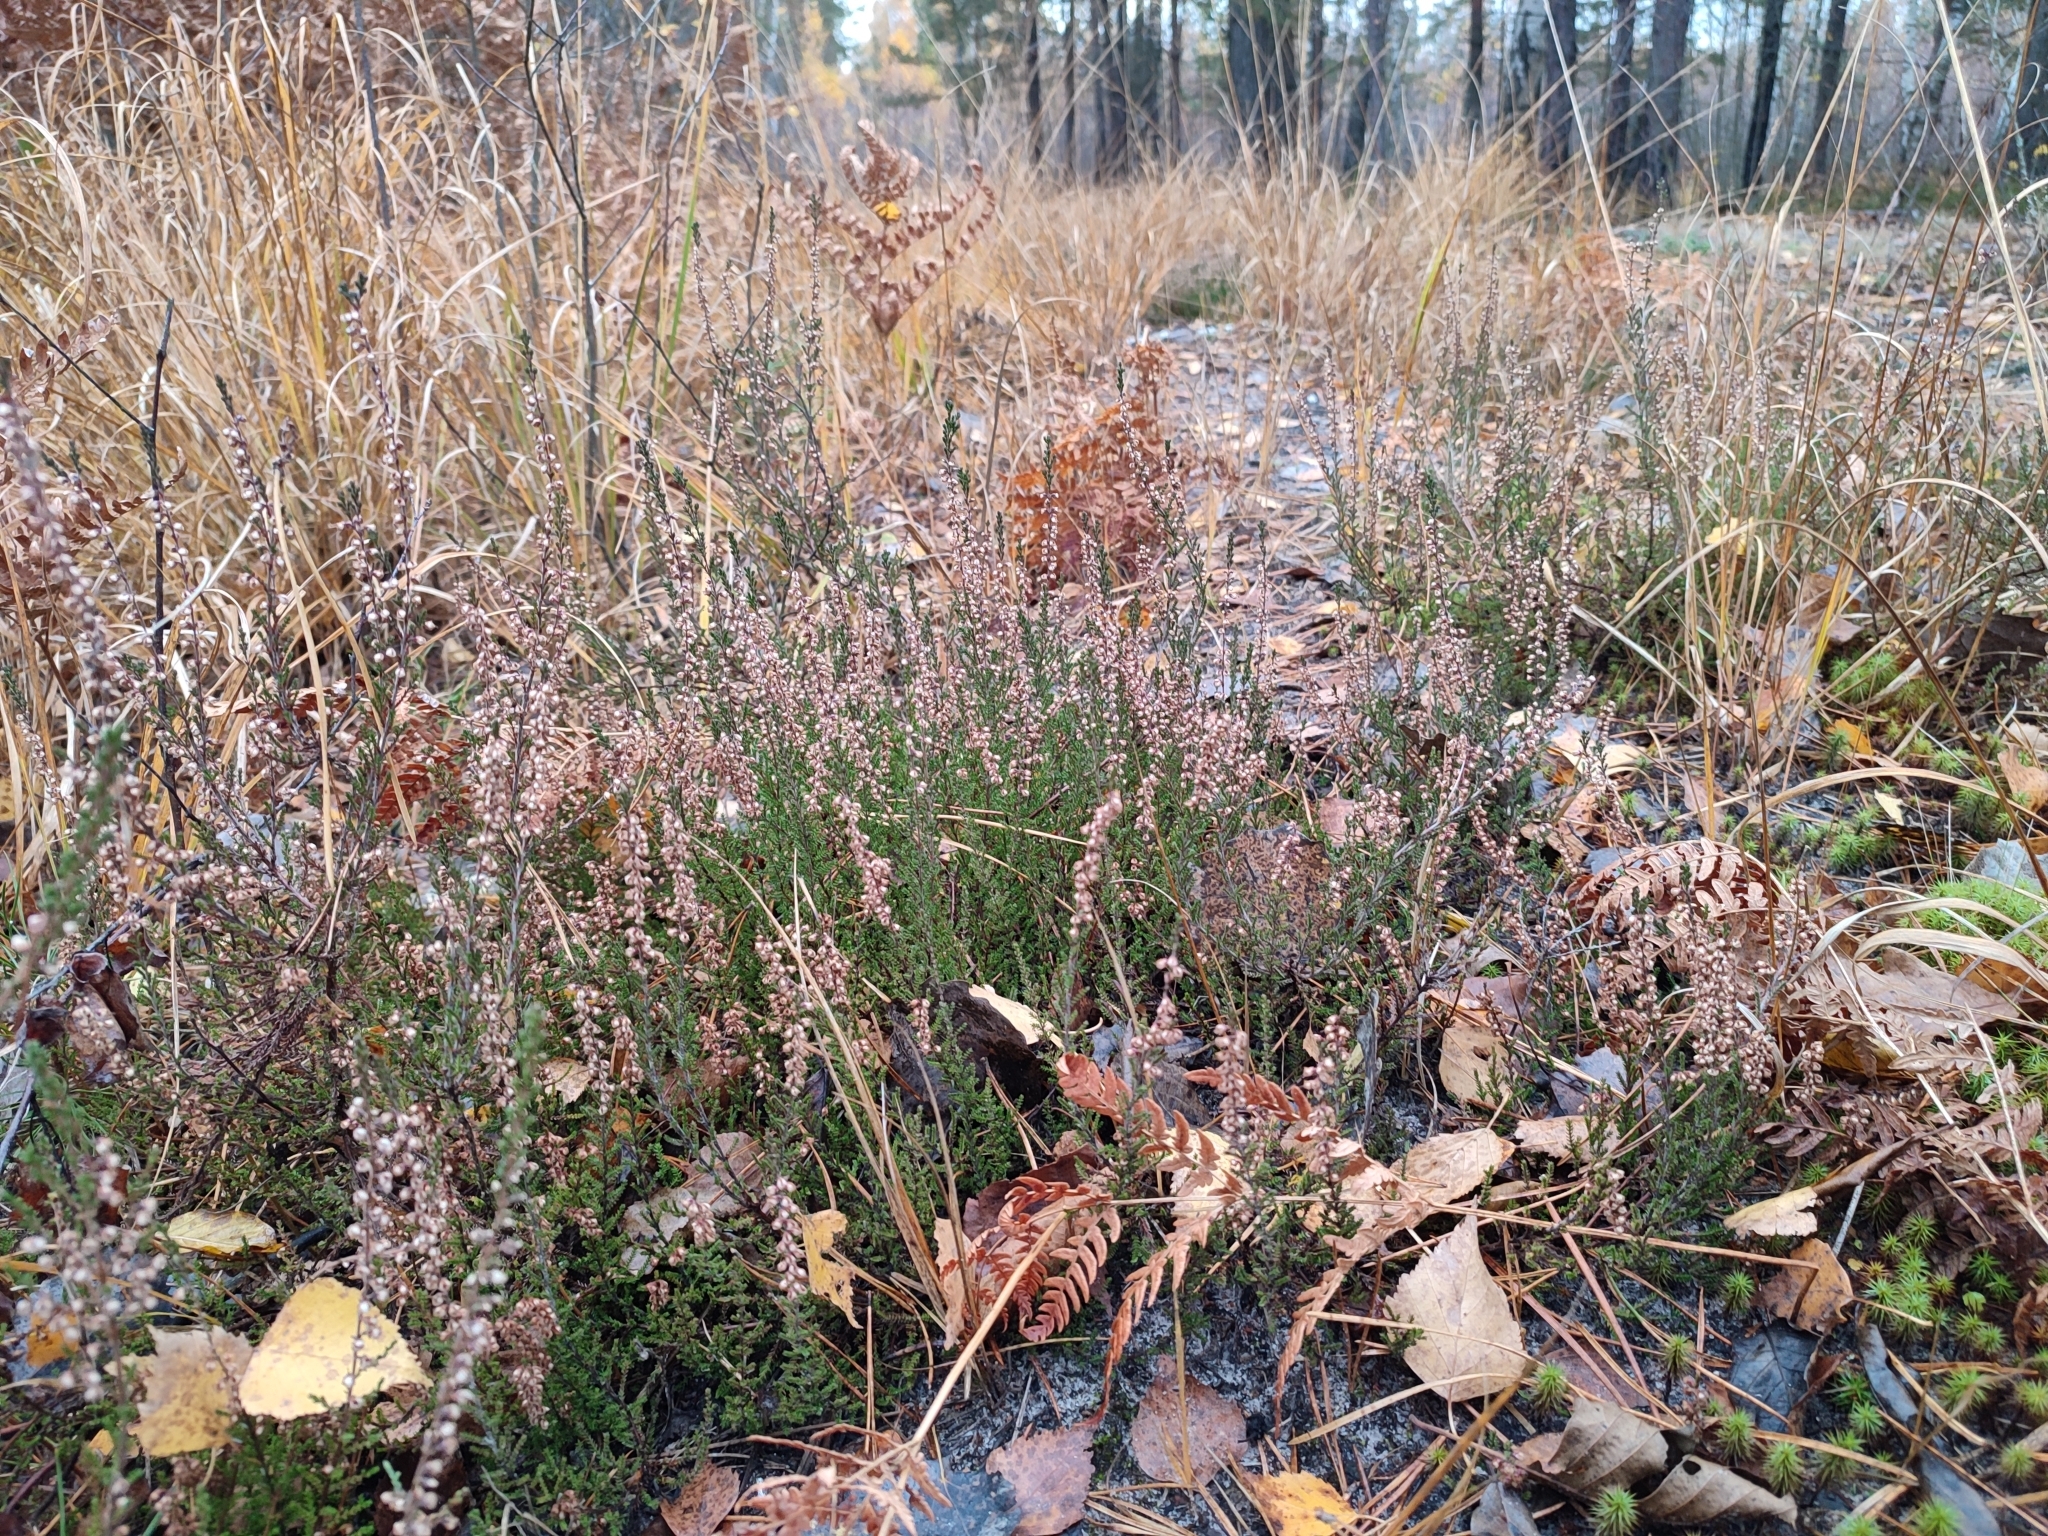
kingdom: Plantae
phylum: Tracheophyta
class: Magnoliopsida
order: Ericales
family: Ericaceae
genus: Calluna
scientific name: Calluna vulgaris
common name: Heather
